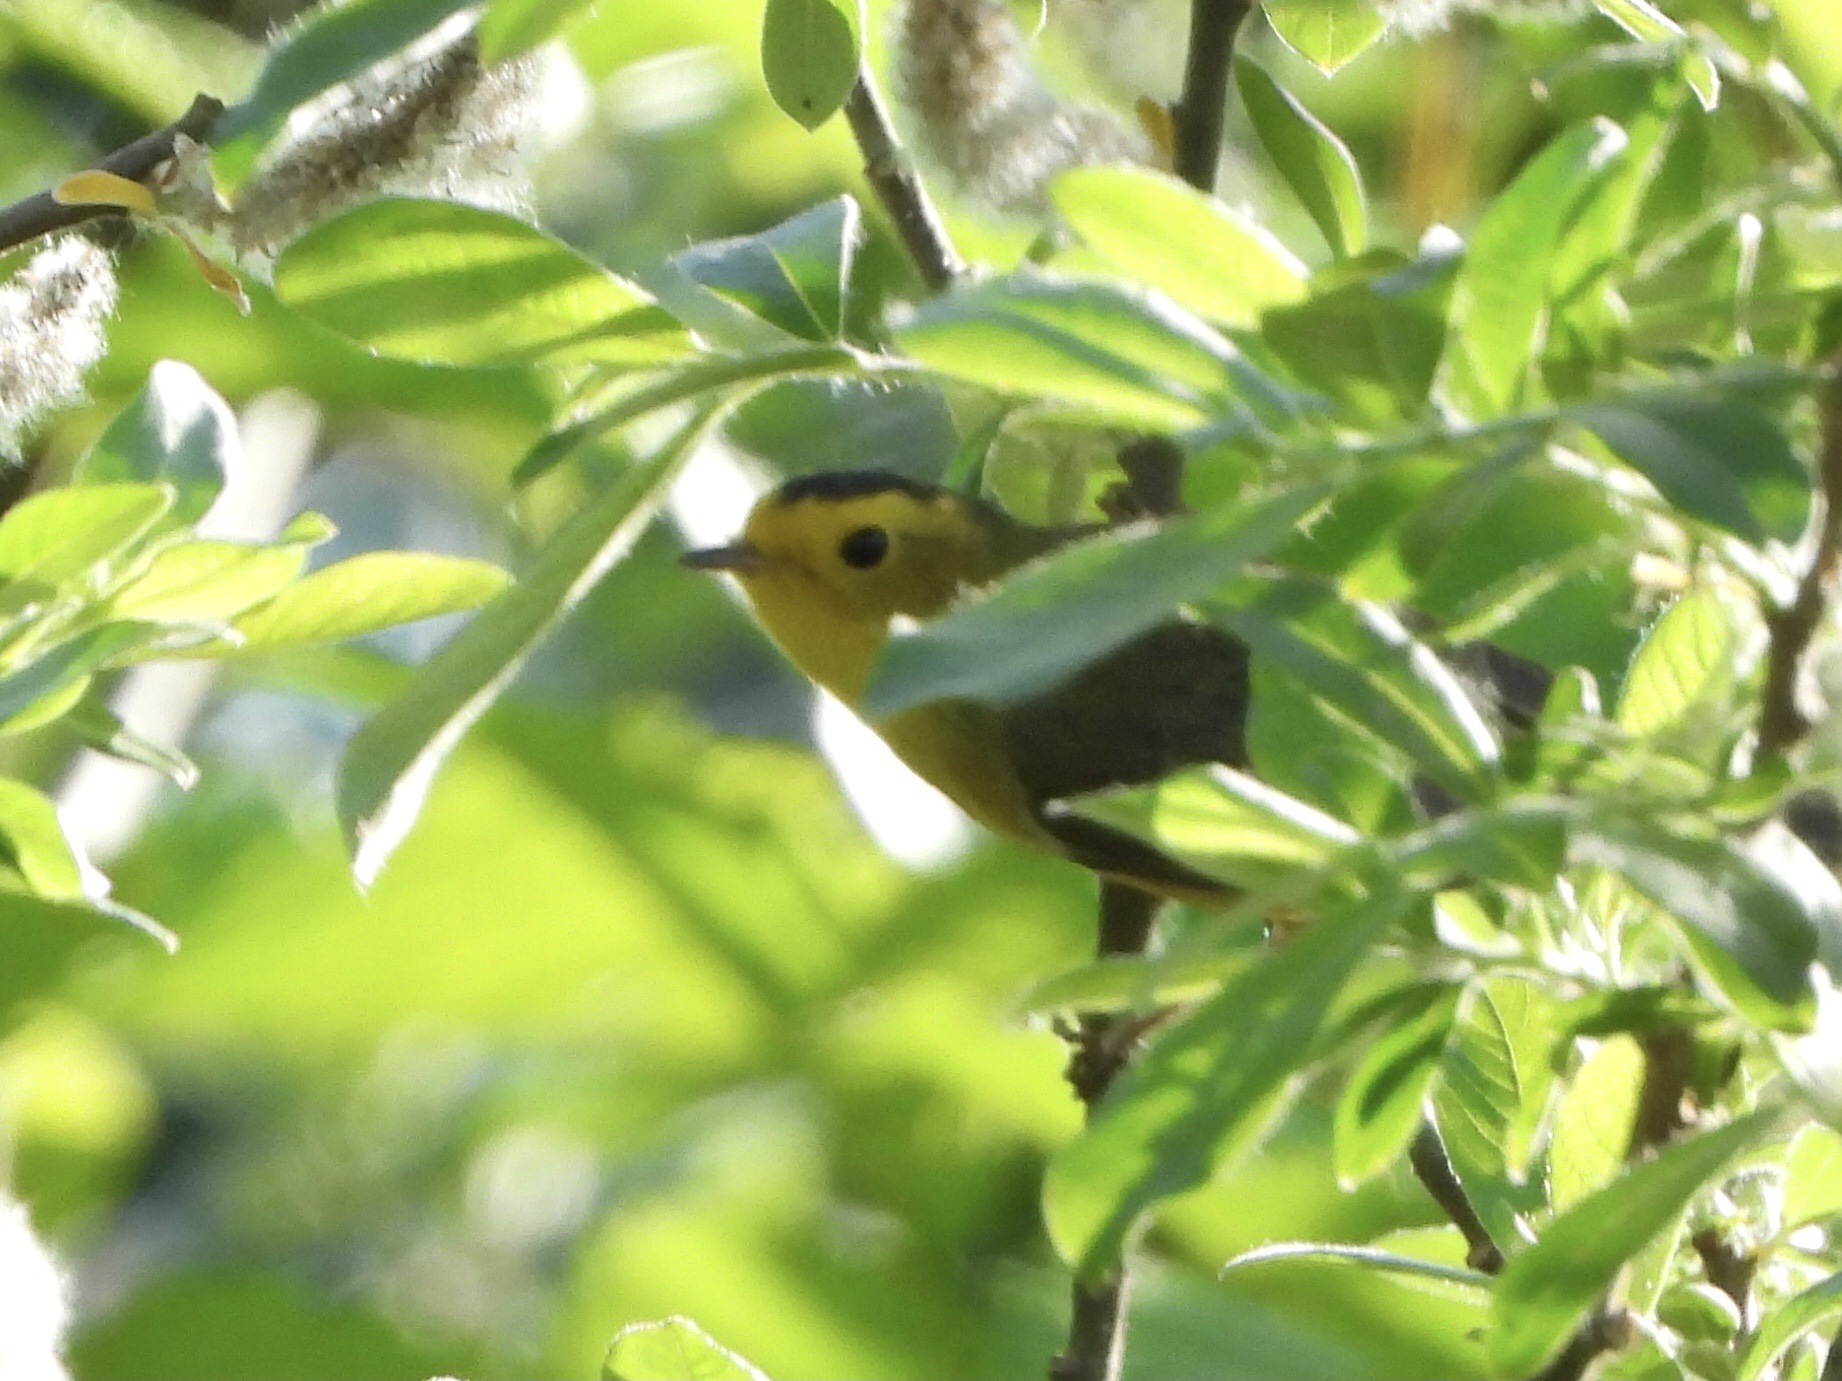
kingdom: Animalia
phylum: Chordata
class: Aves
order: Passeriformes
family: Parulidae
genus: Cardellina
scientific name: Cardellina pusilla
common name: Wilson's warbler
